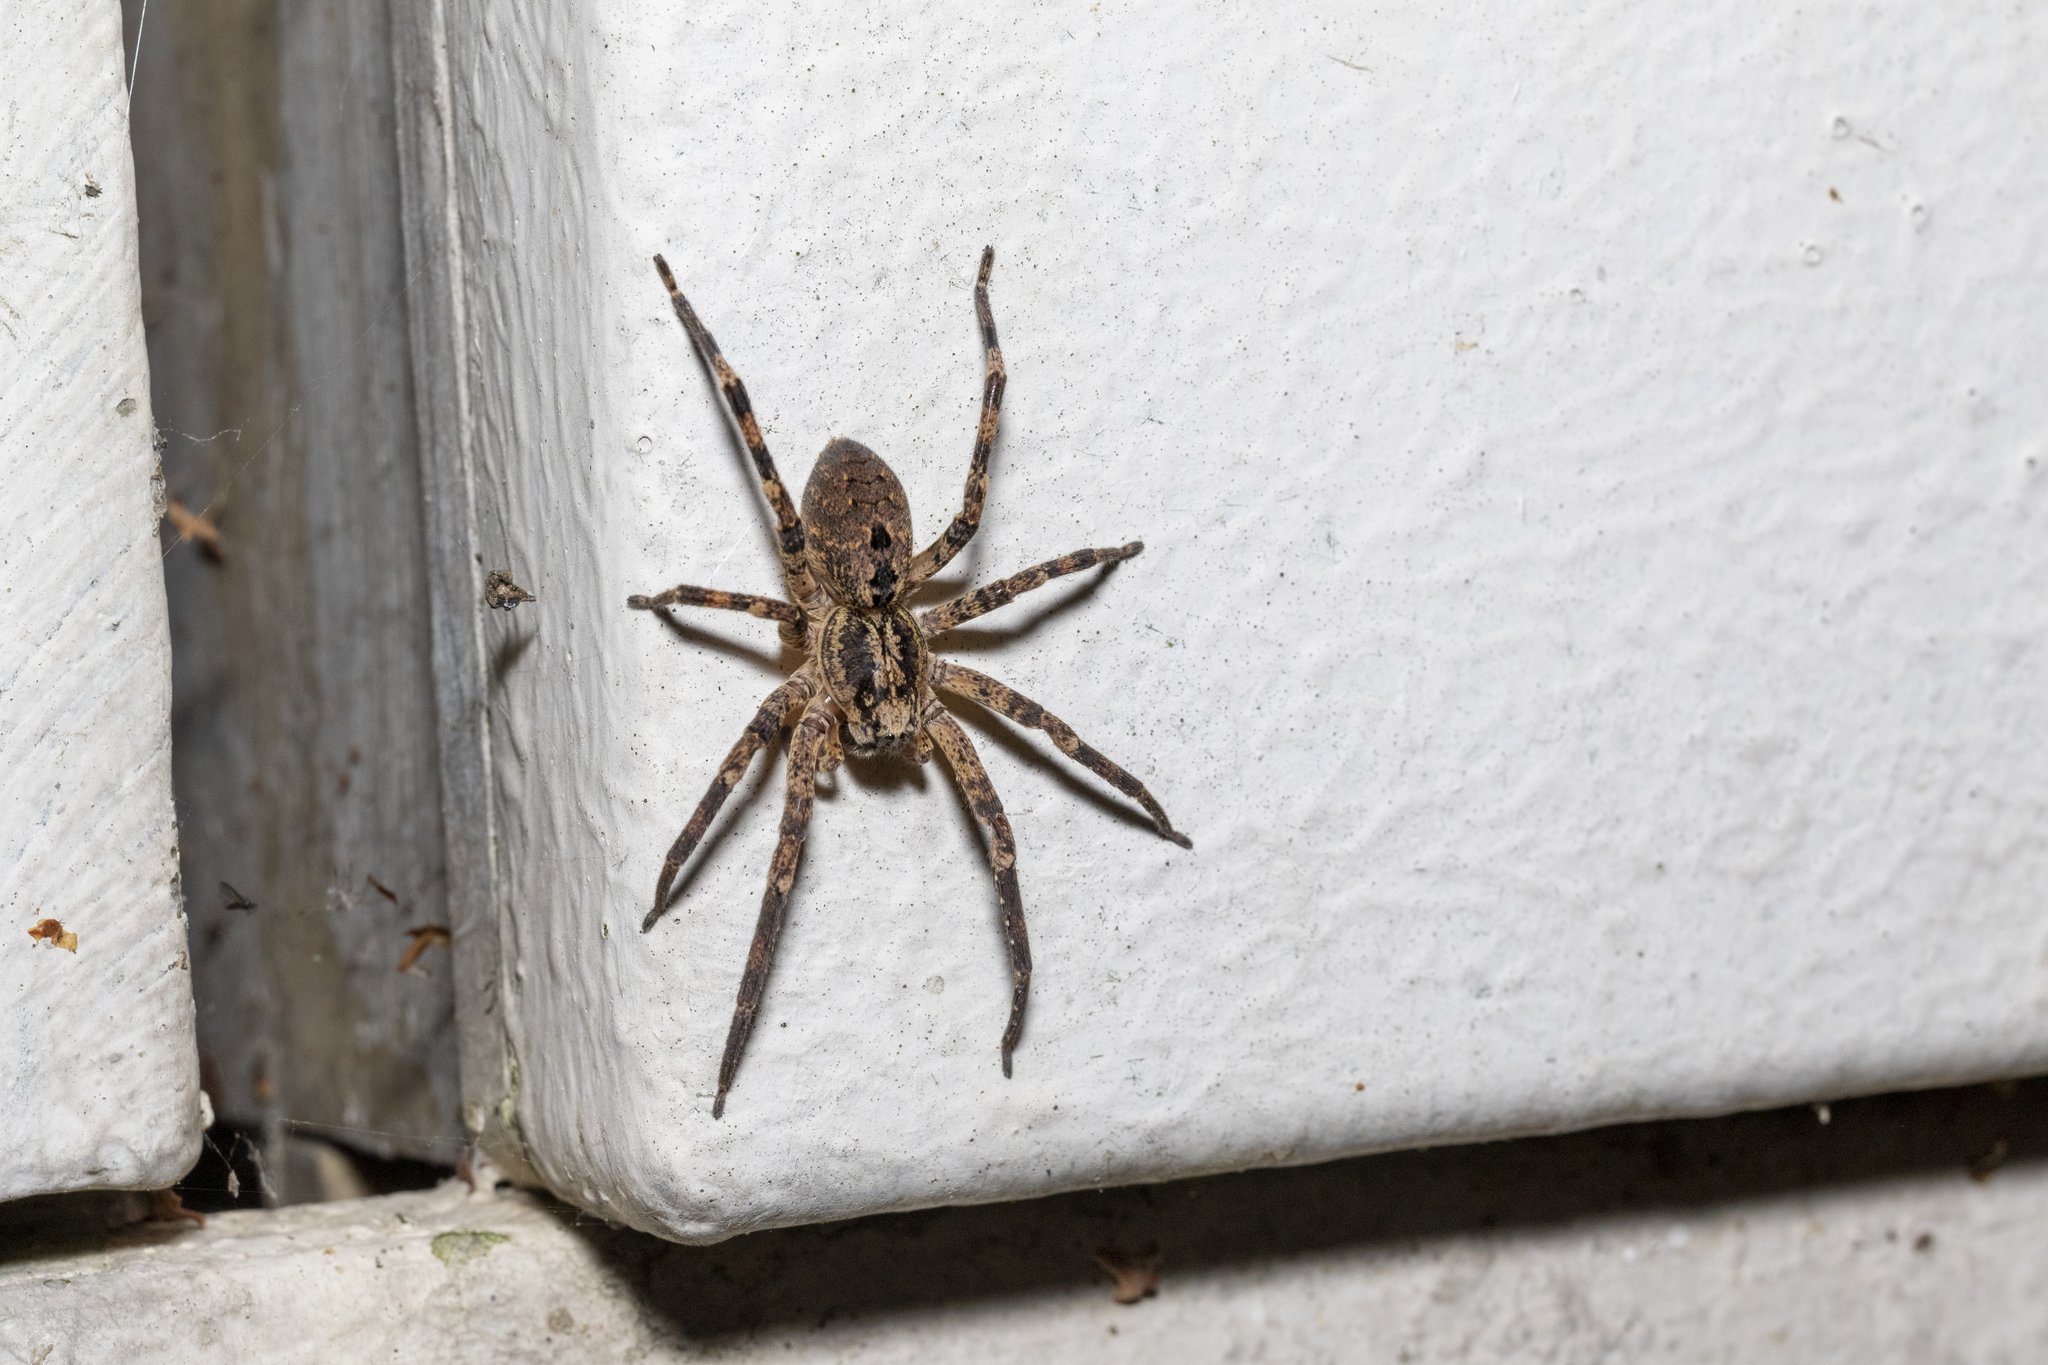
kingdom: Animalia
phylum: Arthropoda
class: Arachnida
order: Araneae
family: Zoropsidae
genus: Zoropsis
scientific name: Zoropsis spinimana
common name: Zoropsid spider
